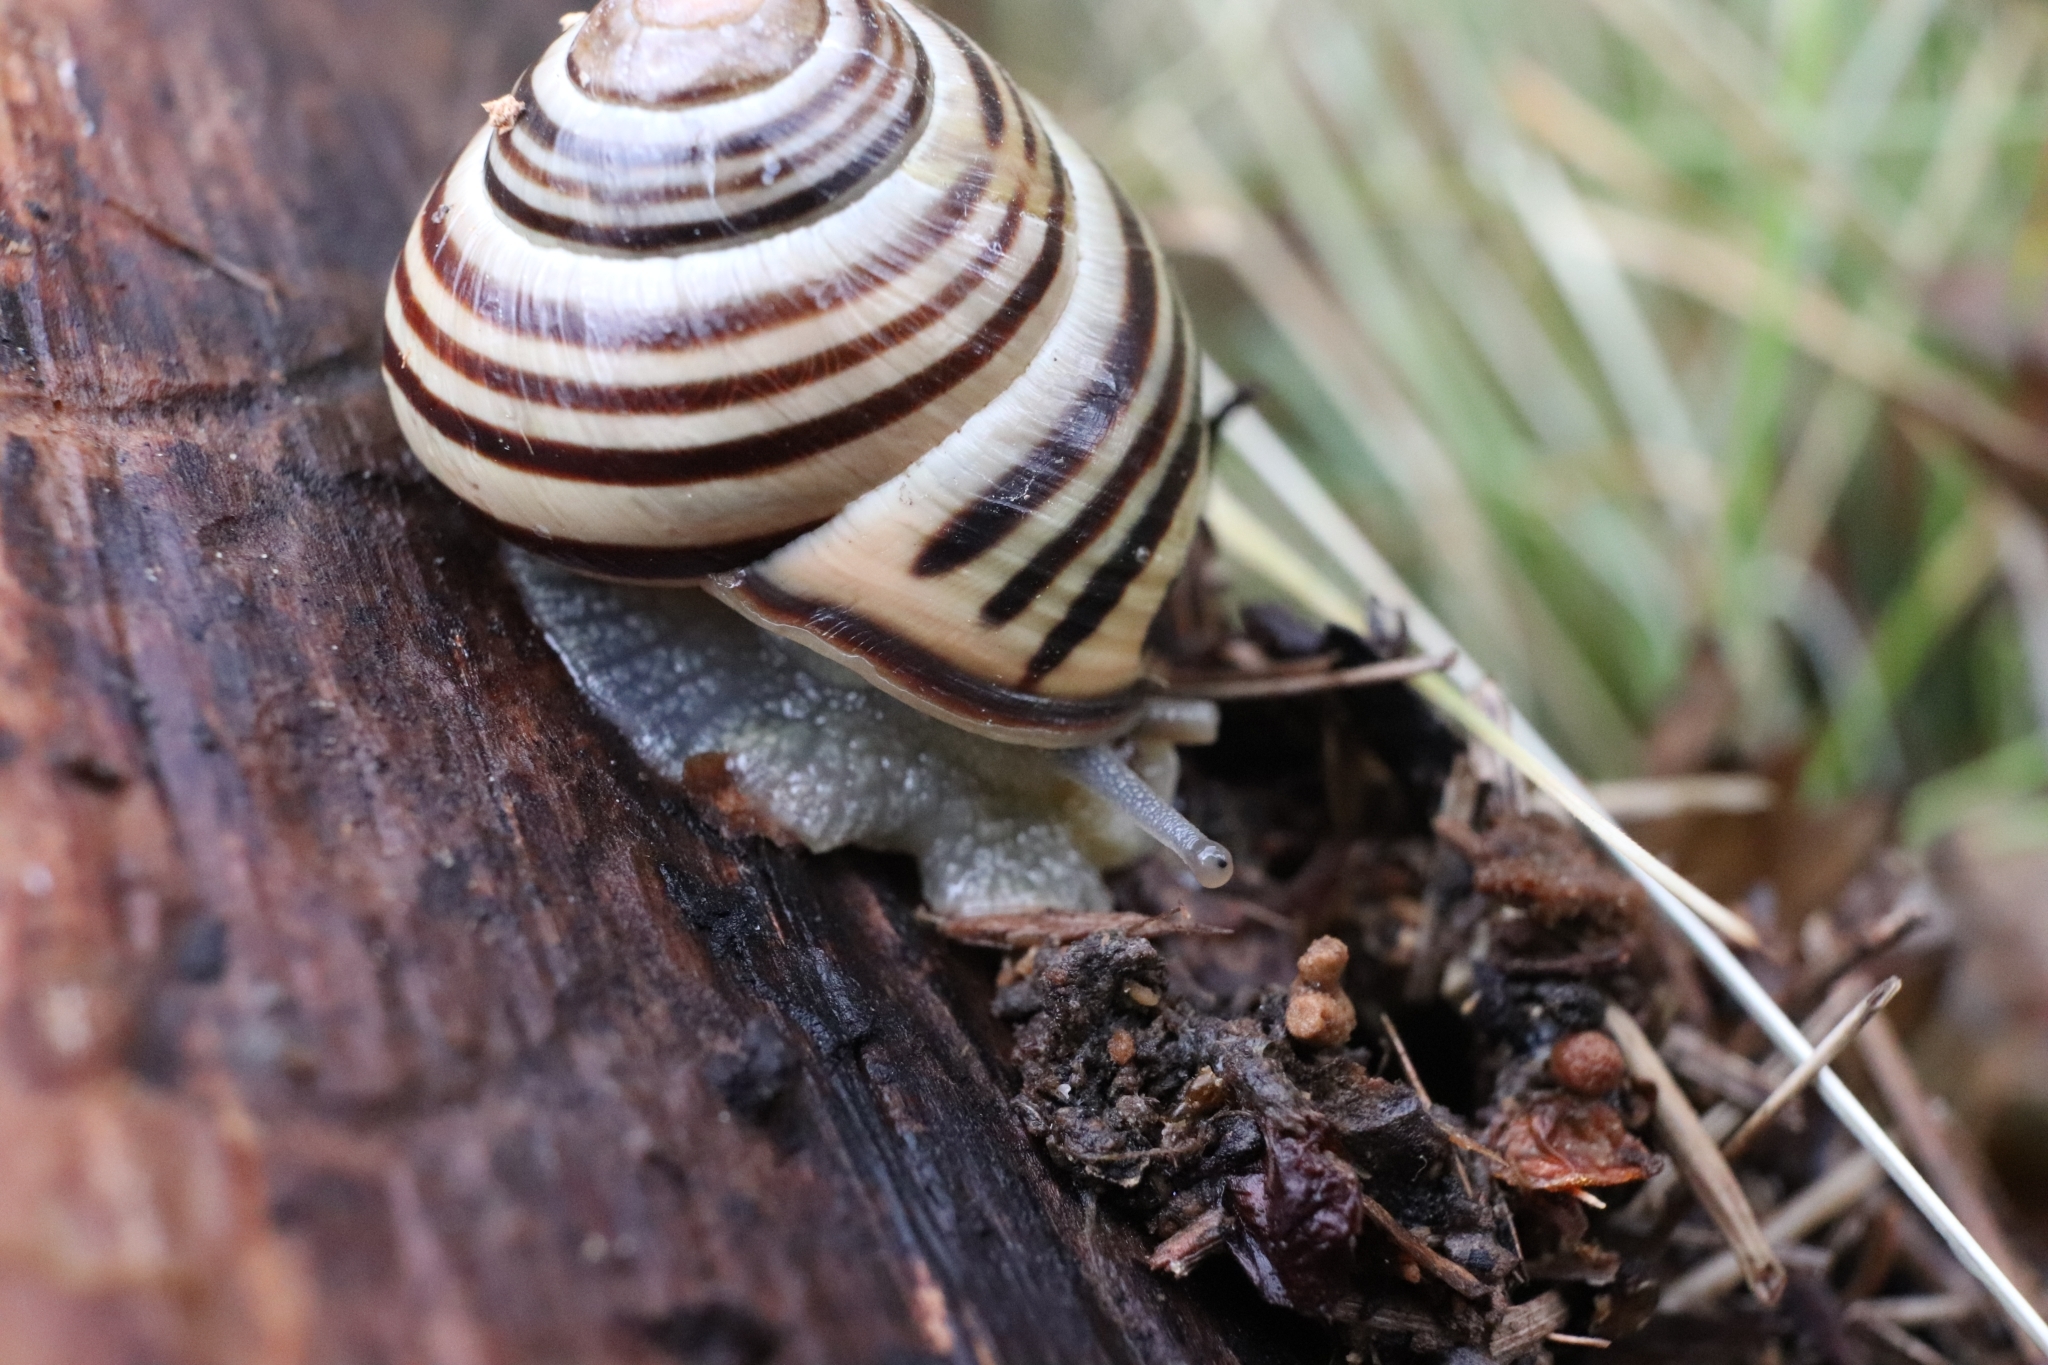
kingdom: Animalia
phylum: Mollusca
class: Gastropoda
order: Stylommatophora
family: Helicidae
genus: Cepaea
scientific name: Cepaea nemoralis
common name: Grovesnail
